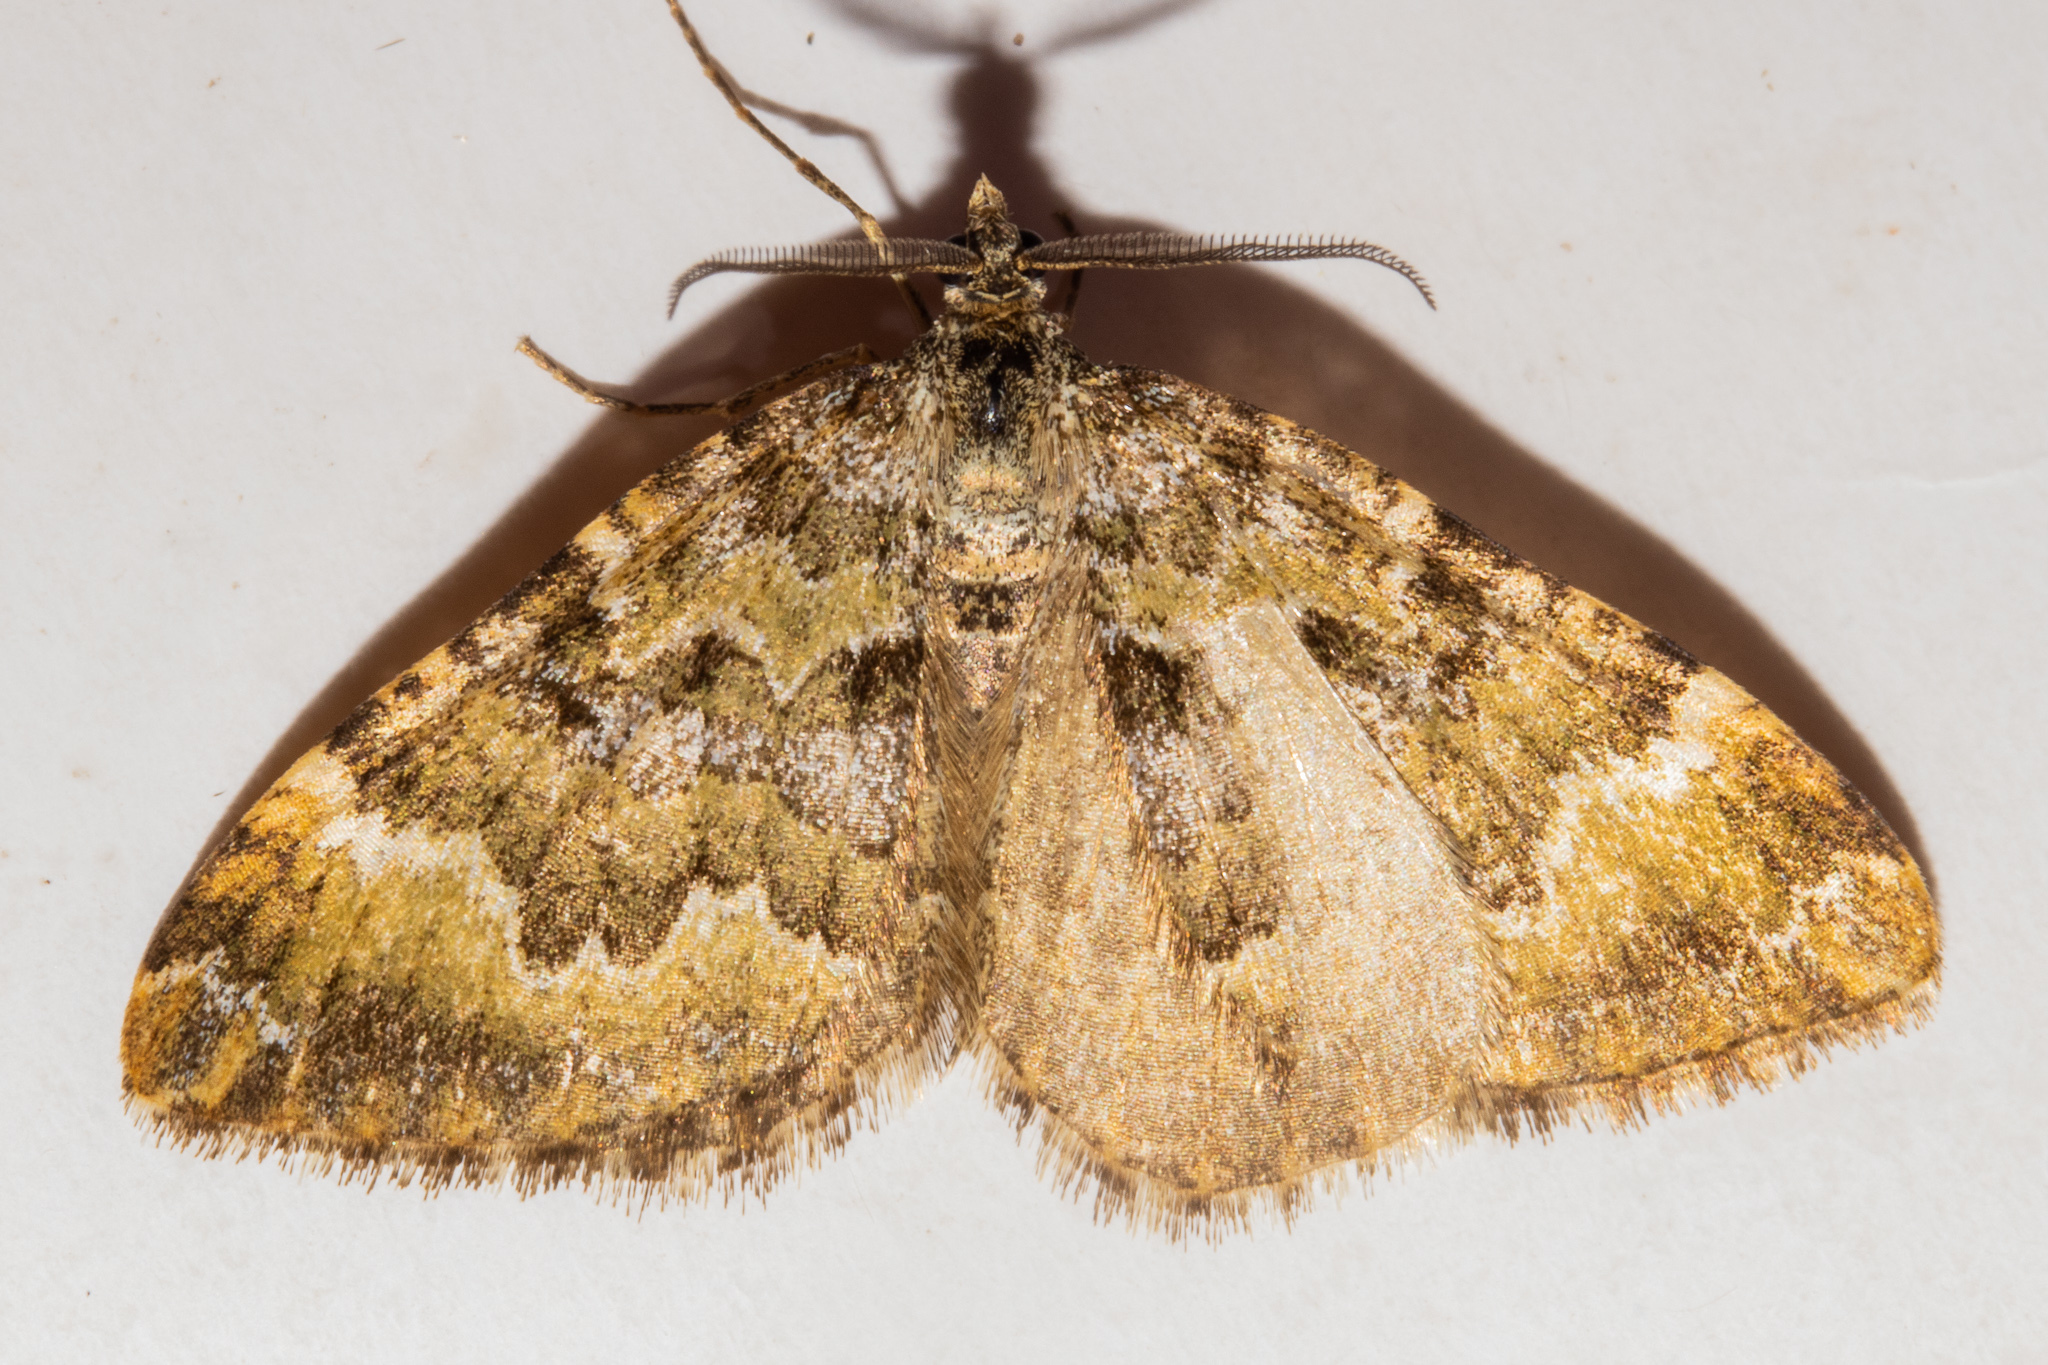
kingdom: Animalia
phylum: Arthropoda
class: Insecta
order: Lepidoptera
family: Geometridae
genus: Asaphodes
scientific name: Asaphodes prasinias
